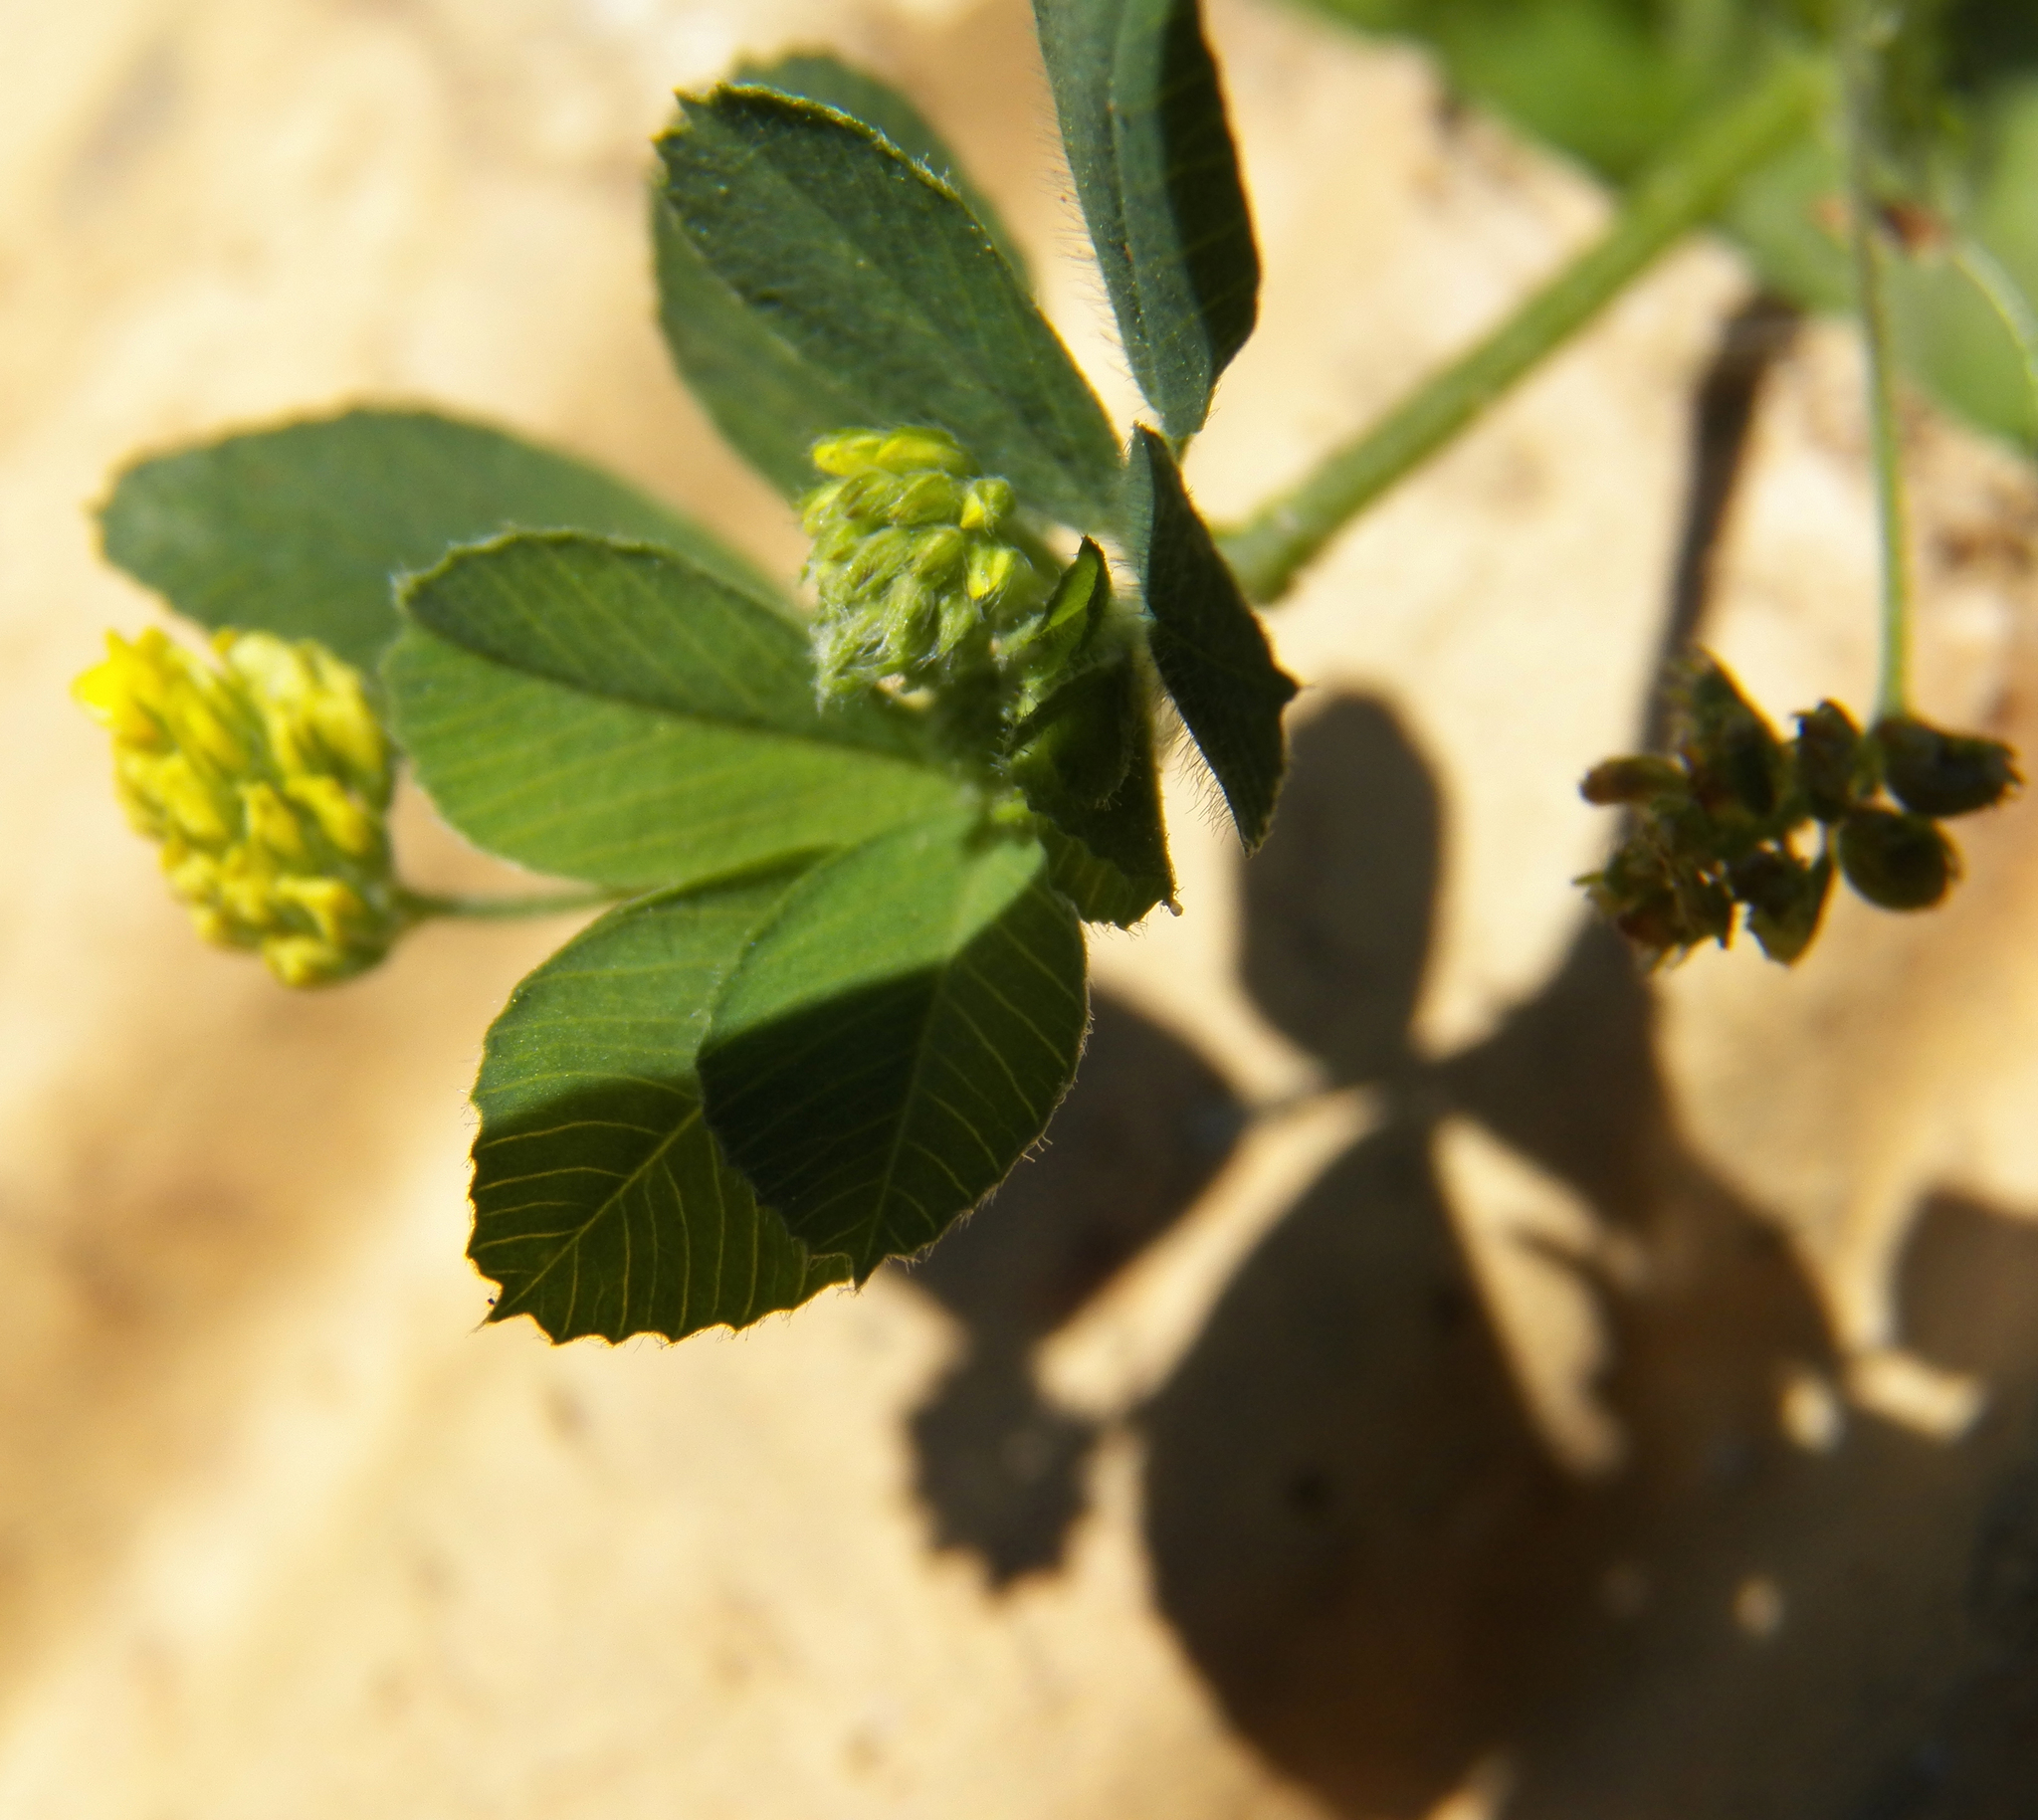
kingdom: Plantae
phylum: Tracheophyta
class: Magnoliopsida
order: Fabales
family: Fabaceae
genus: Medicago
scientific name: Medicago lupulina
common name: Black medick
